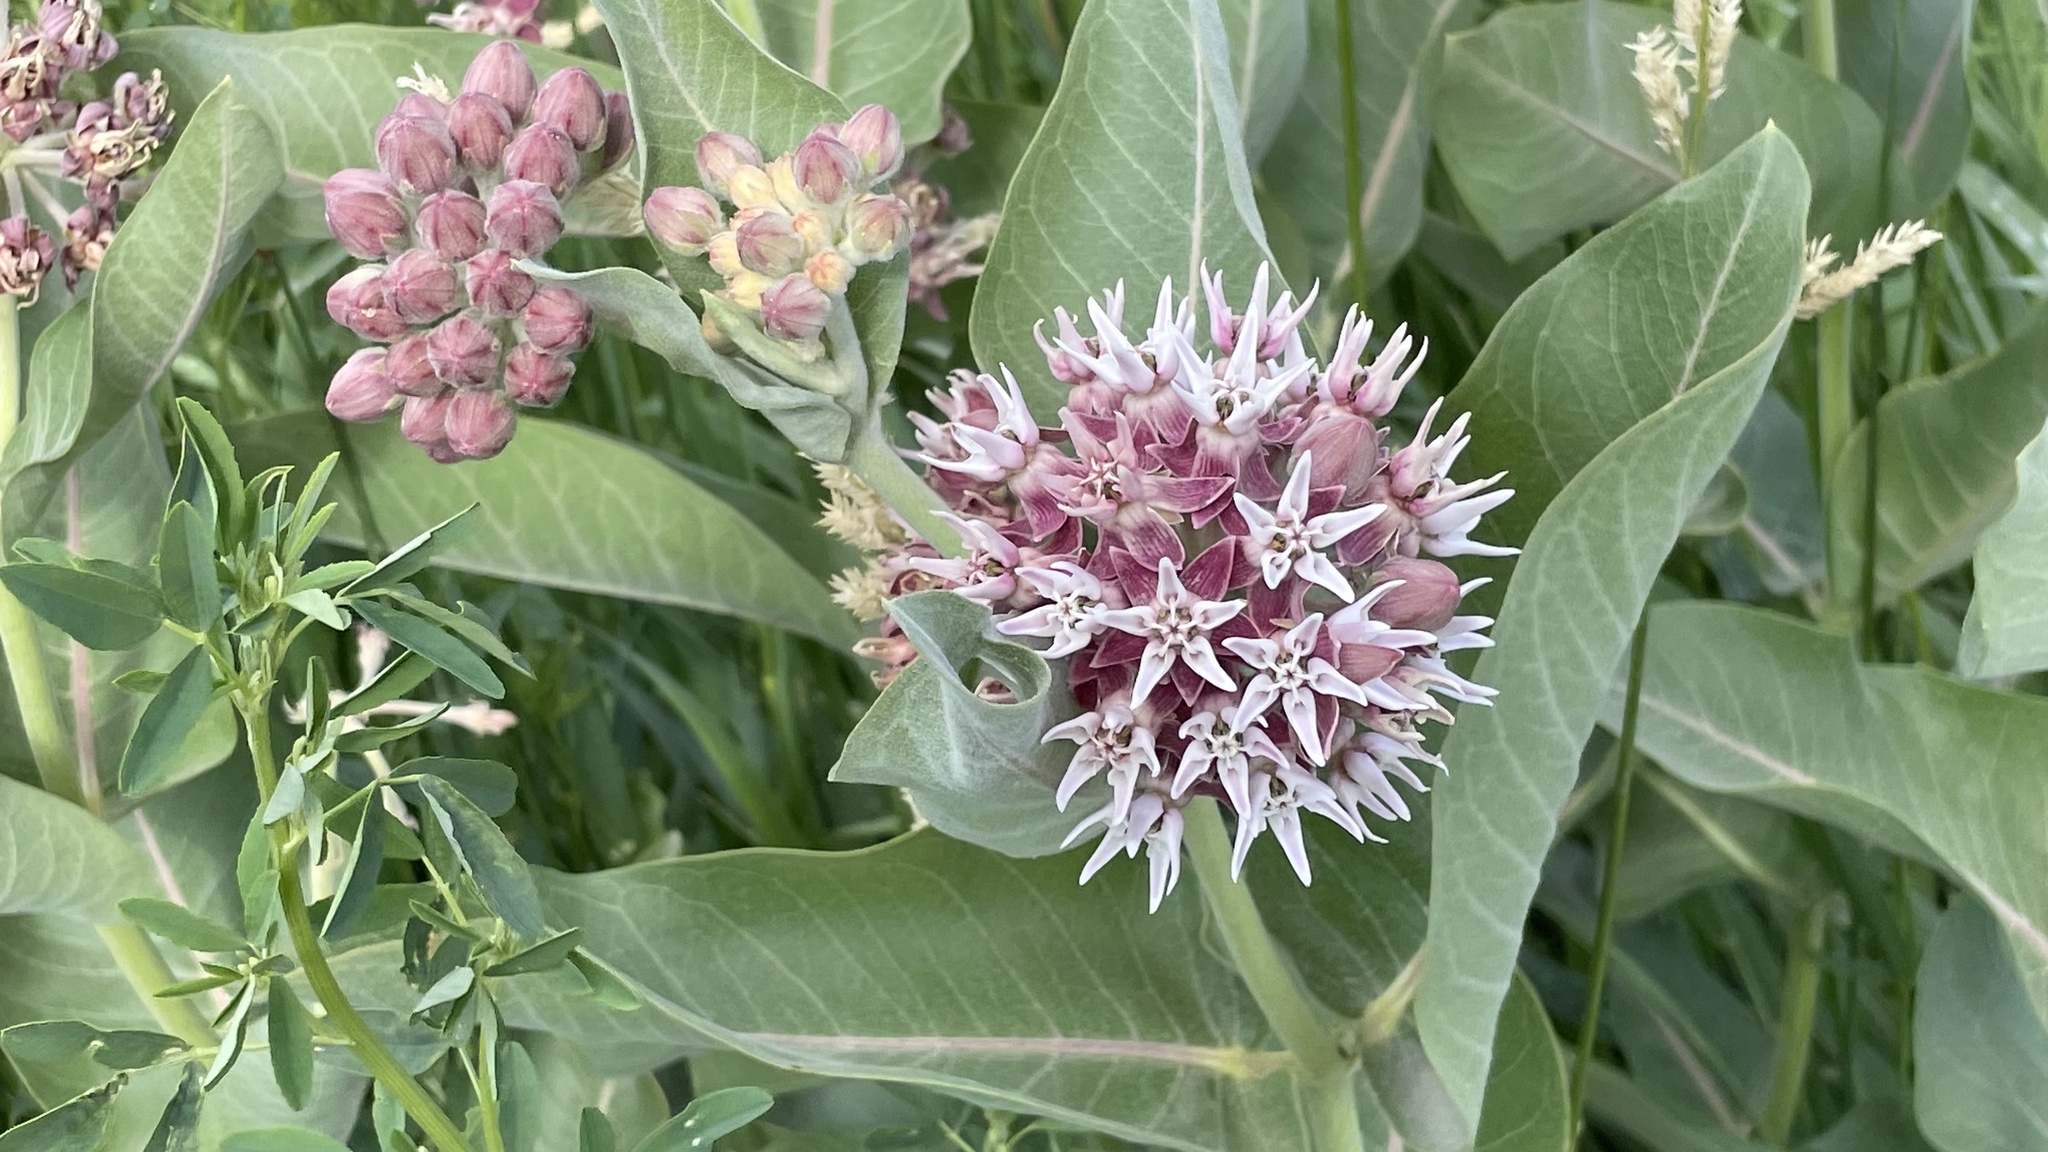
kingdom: Plantae
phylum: Tracheophyta
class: Magnoliopsida
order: Gentianales
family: Apocynaceae
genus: Asclepias
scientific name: Asclepias speciosa
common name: Showy milkweed
